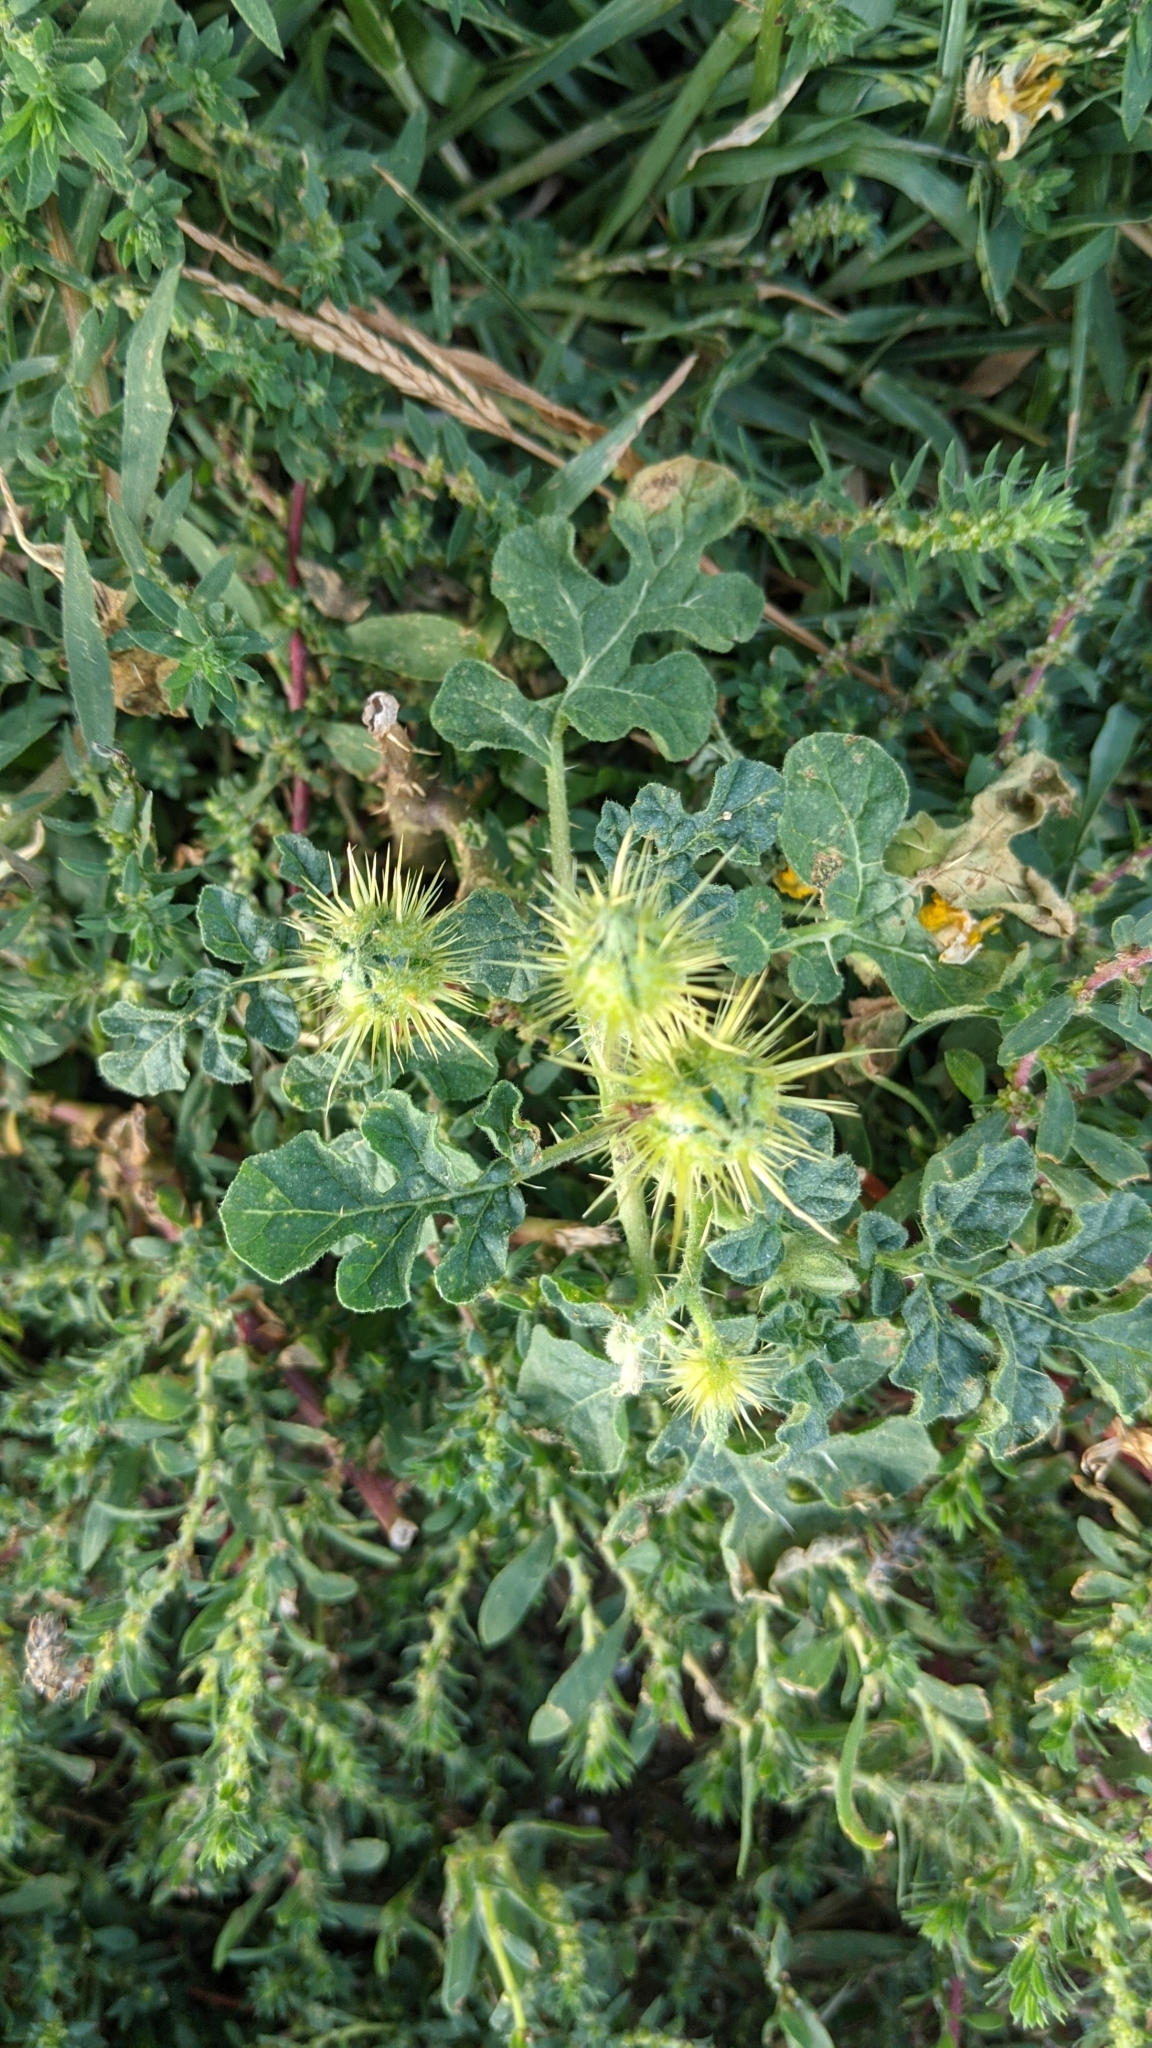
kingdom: Plantae
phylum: Tracheophyta
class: Magnoliopsida
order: Solanales
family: Solanaceae
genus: Solanum
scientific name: Solanum angustifolium
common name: Buffalobur nightshade
